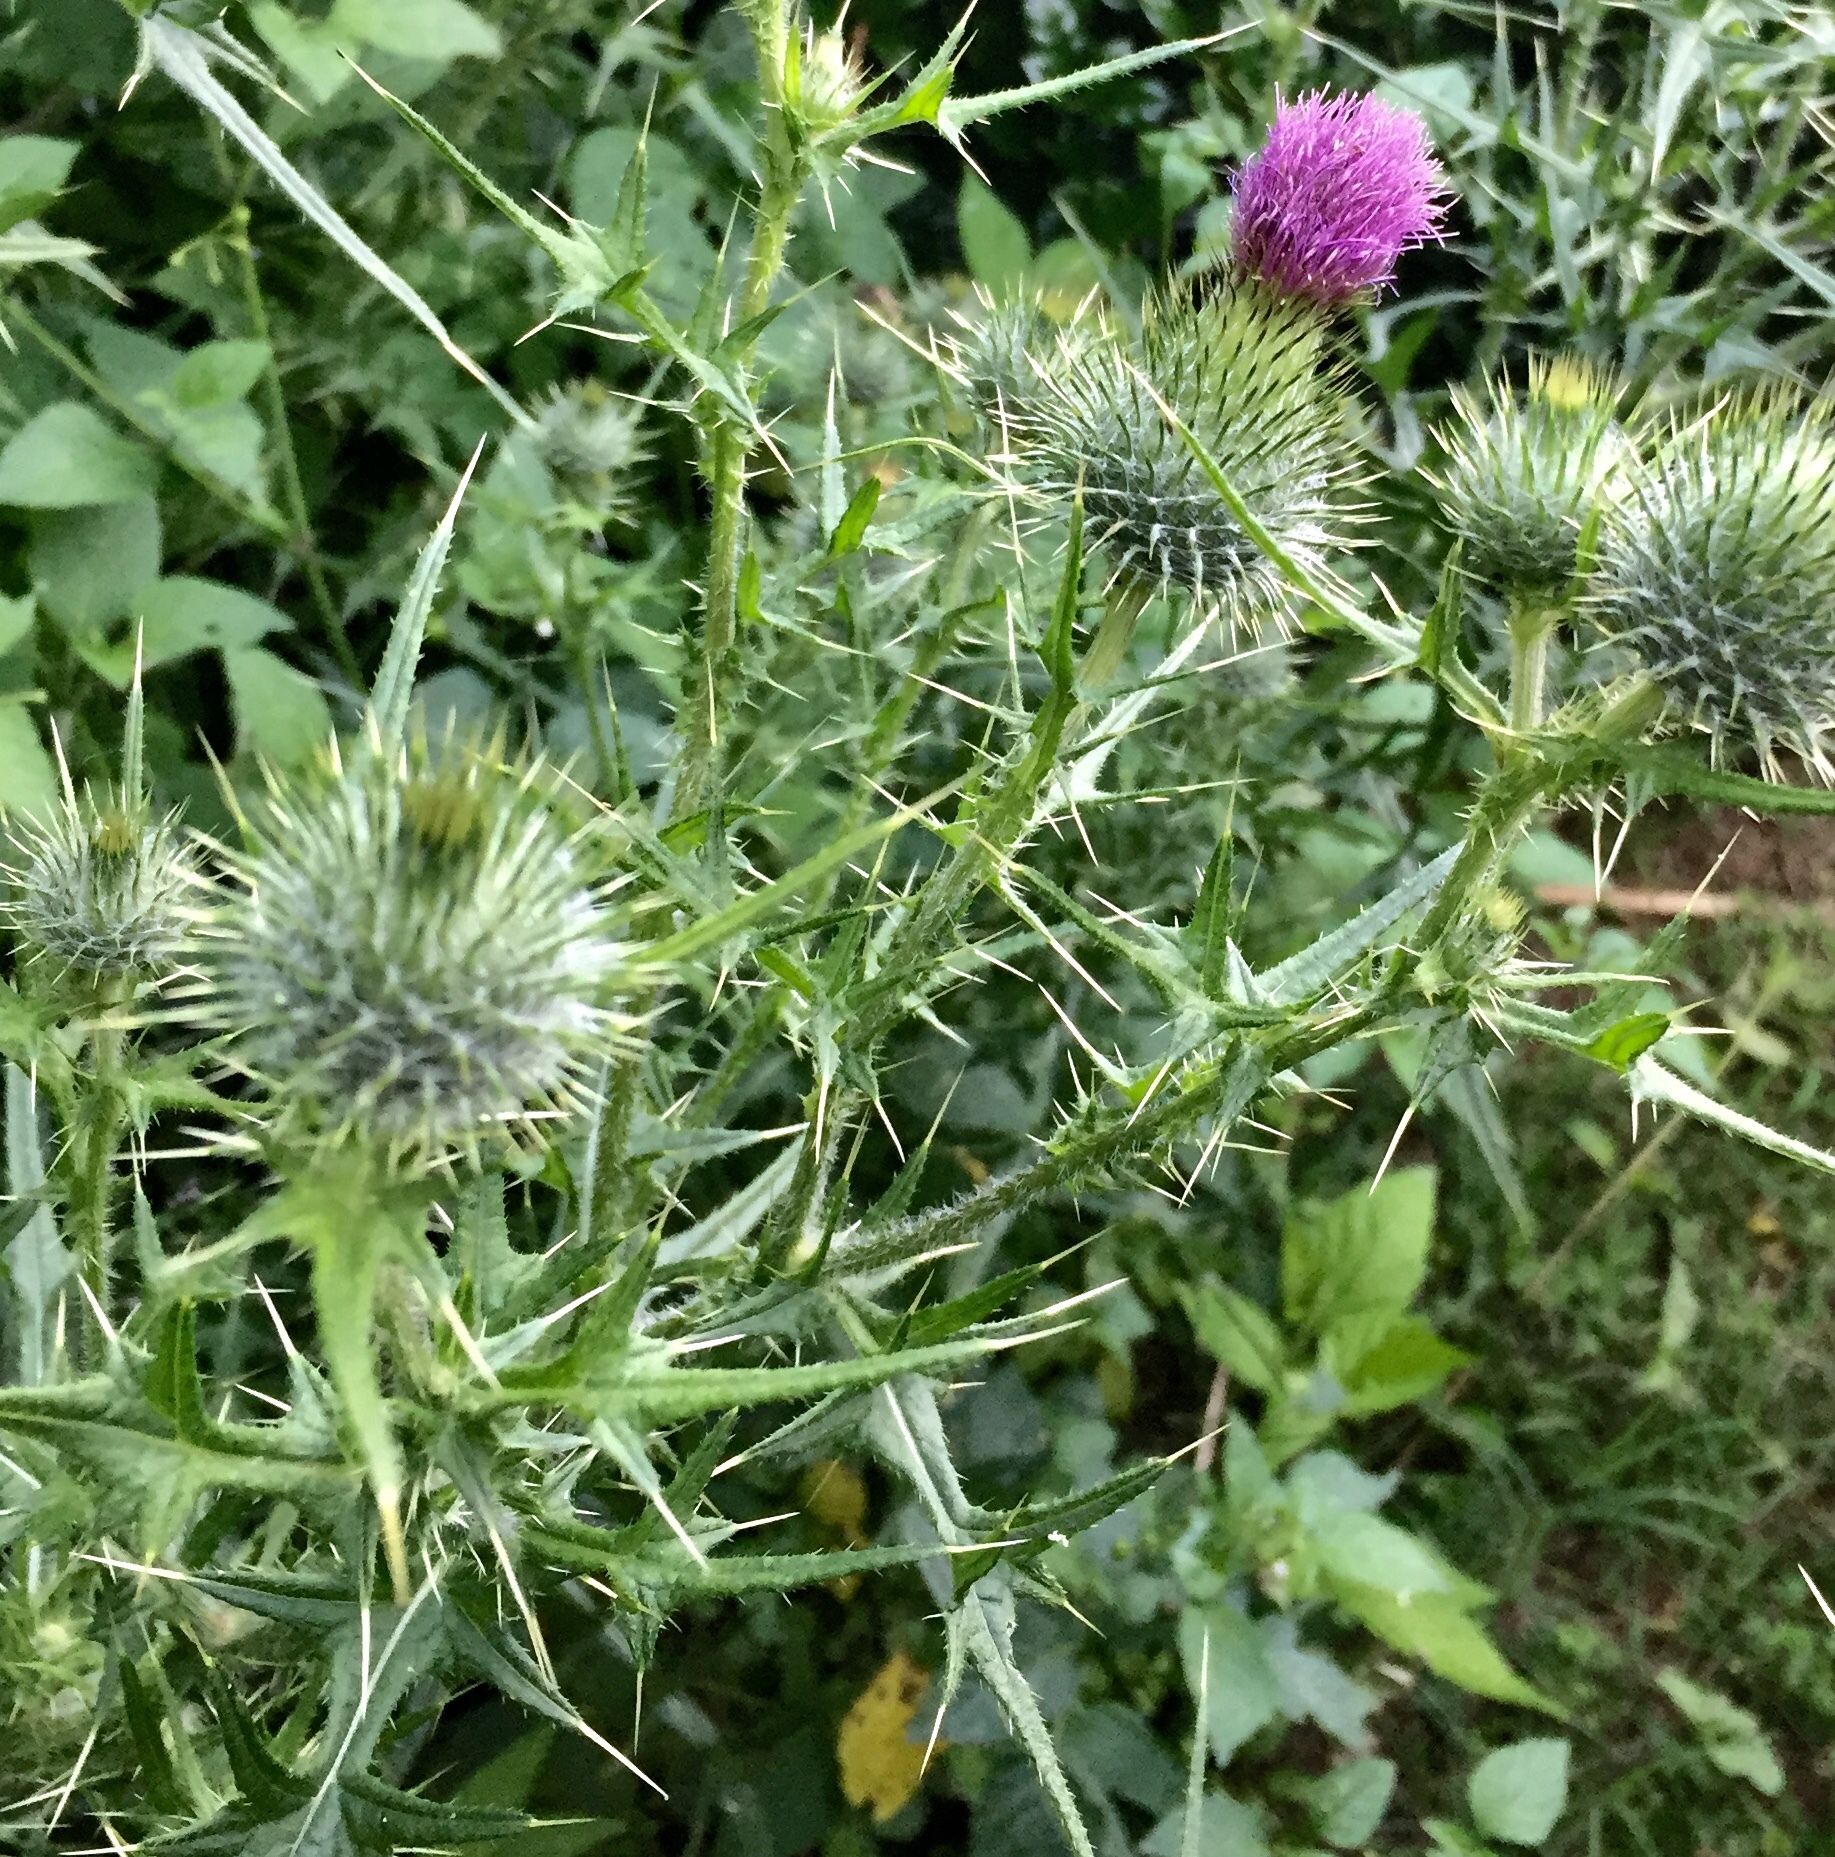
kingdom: Plantae
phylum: Tracheophyta
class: Magnoliopsida
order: Asterales
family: Asteraceae
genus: Cirsium
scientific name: Cirsium vulgare
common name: Bull thistle
